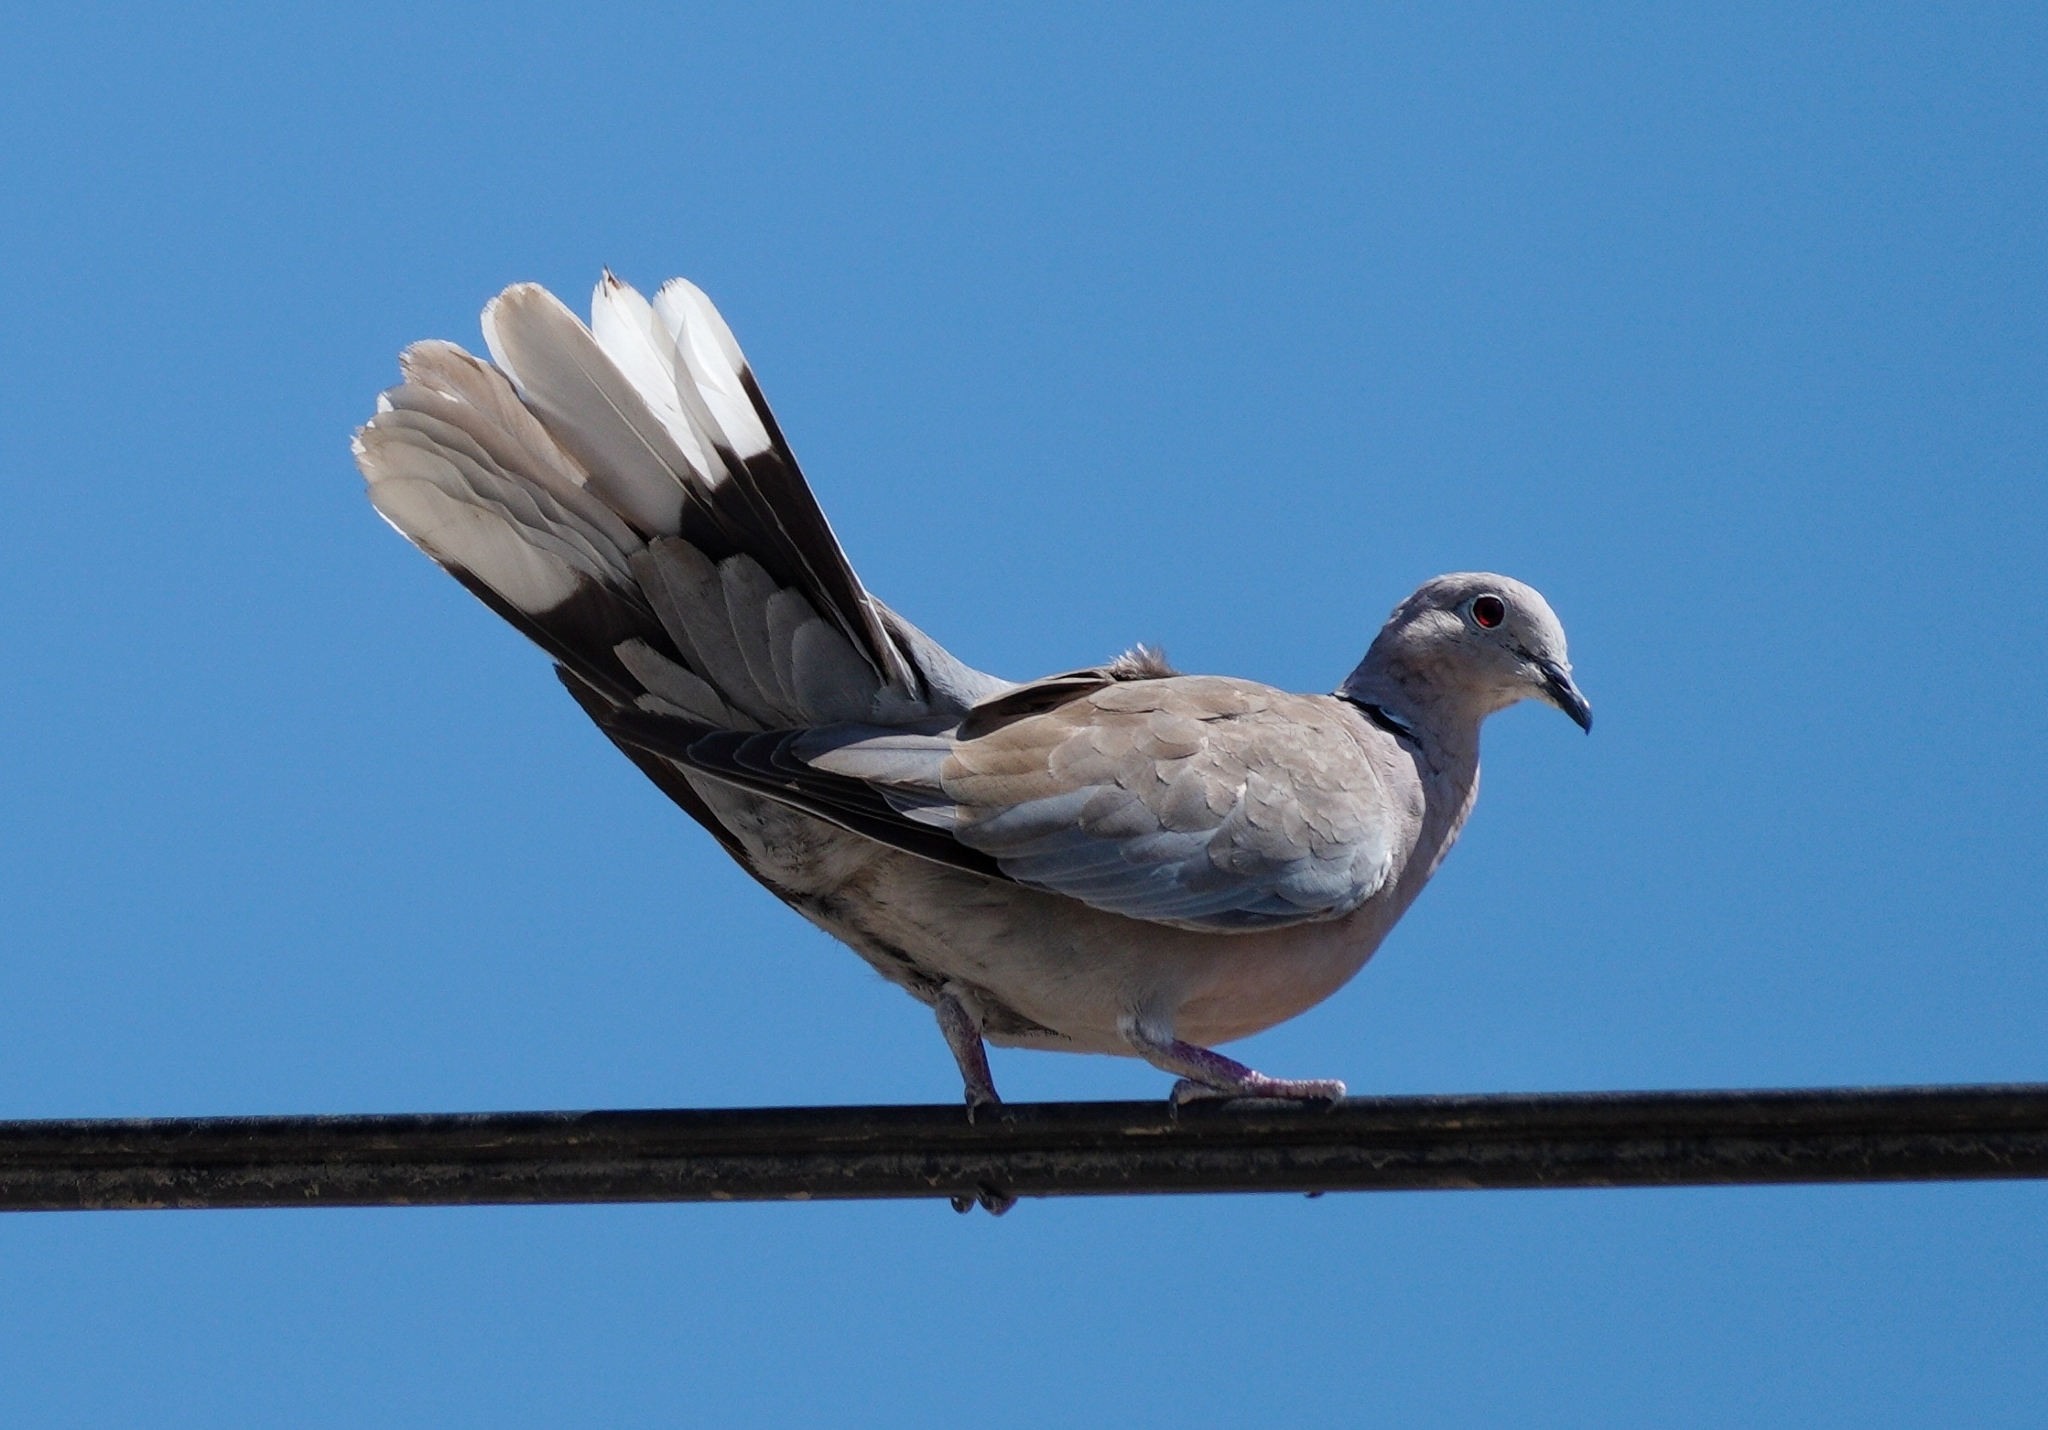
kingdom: Animalia
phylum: Chordata
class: Aves
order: Columbiformes
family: Columbidae
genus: Streptopelia
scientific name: Streptopelia decaocto
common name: Eurasian collared dove
